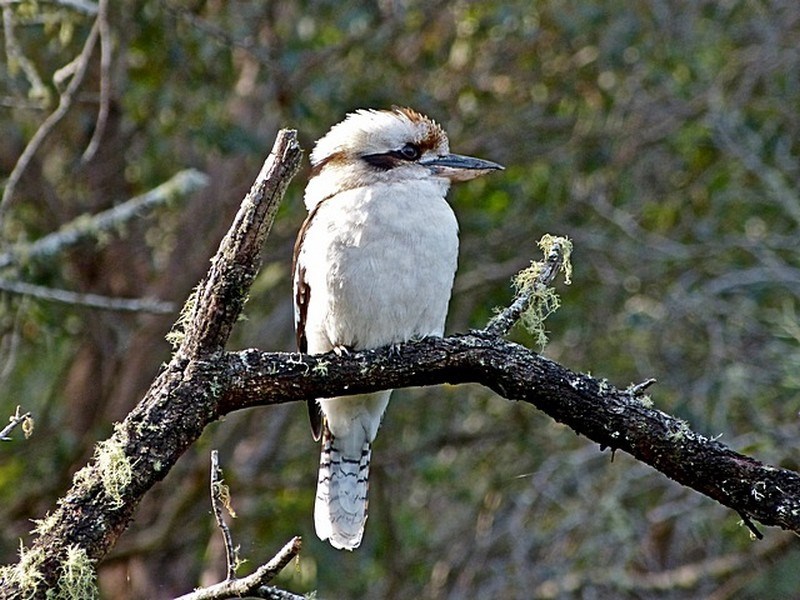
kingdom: Animalia
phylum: Chordata
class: Aves
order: Coraciiformes
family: Alcedinidae
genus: Dacelo
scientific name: Dacelo novaeguineae
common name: Laughing kookaburra
